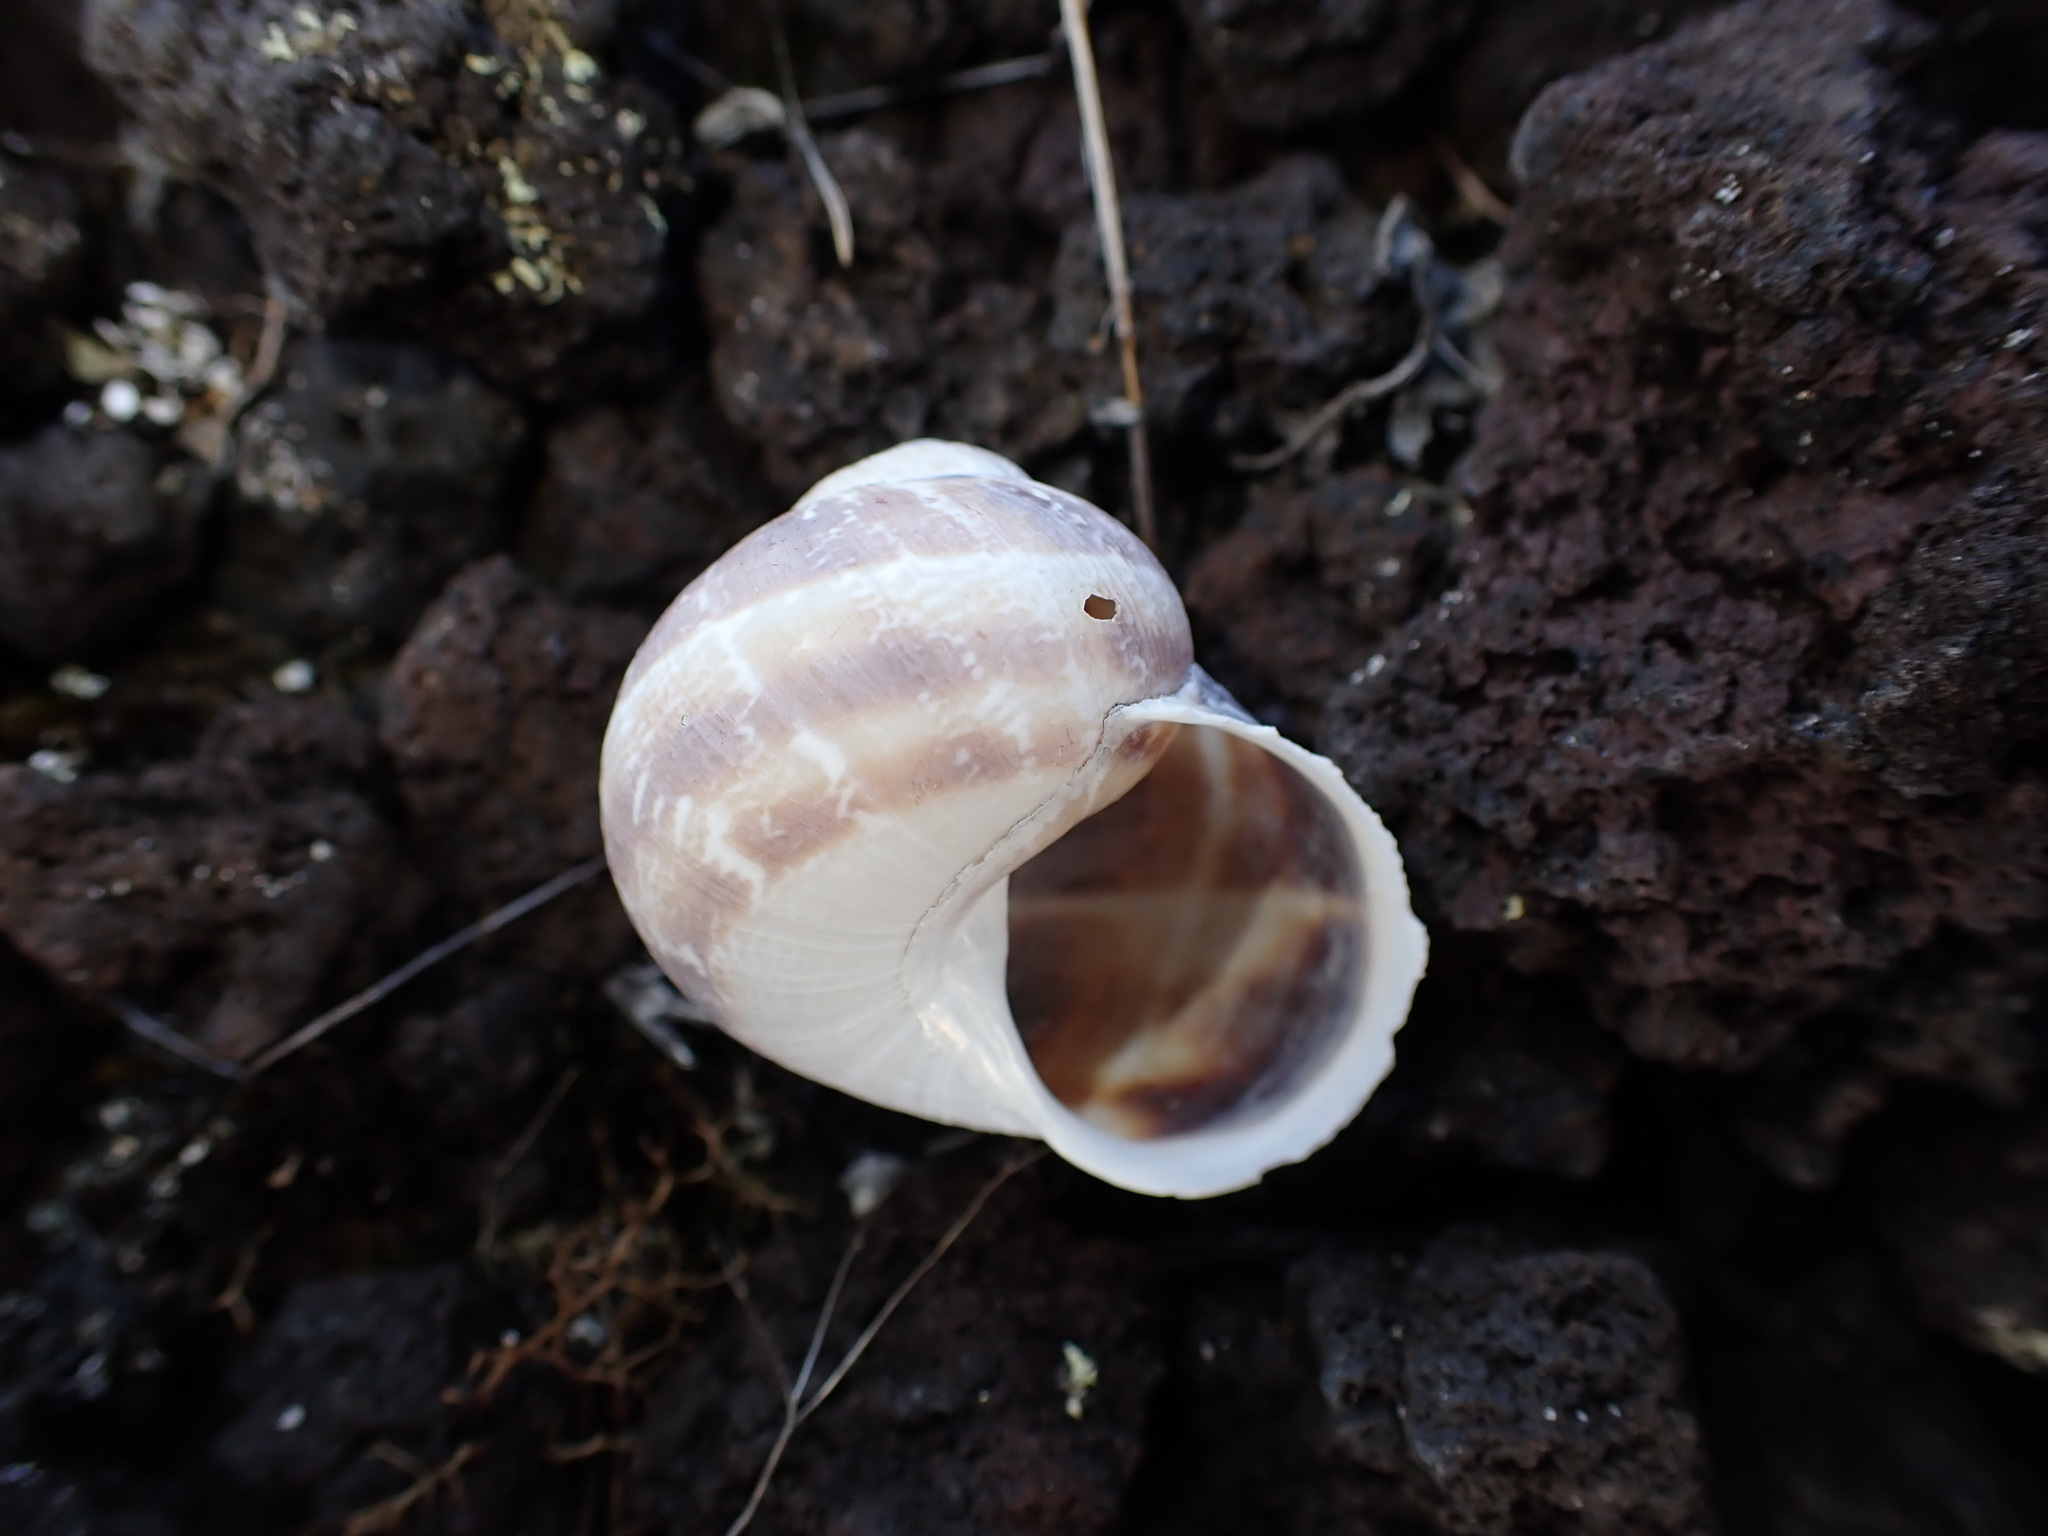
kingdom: Animalia
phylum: Mollusca
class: Gastropoda
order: Stylommatophora
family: Helicidae
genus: Cornu
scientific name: Cornu aspersum
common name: Brown garden snail
